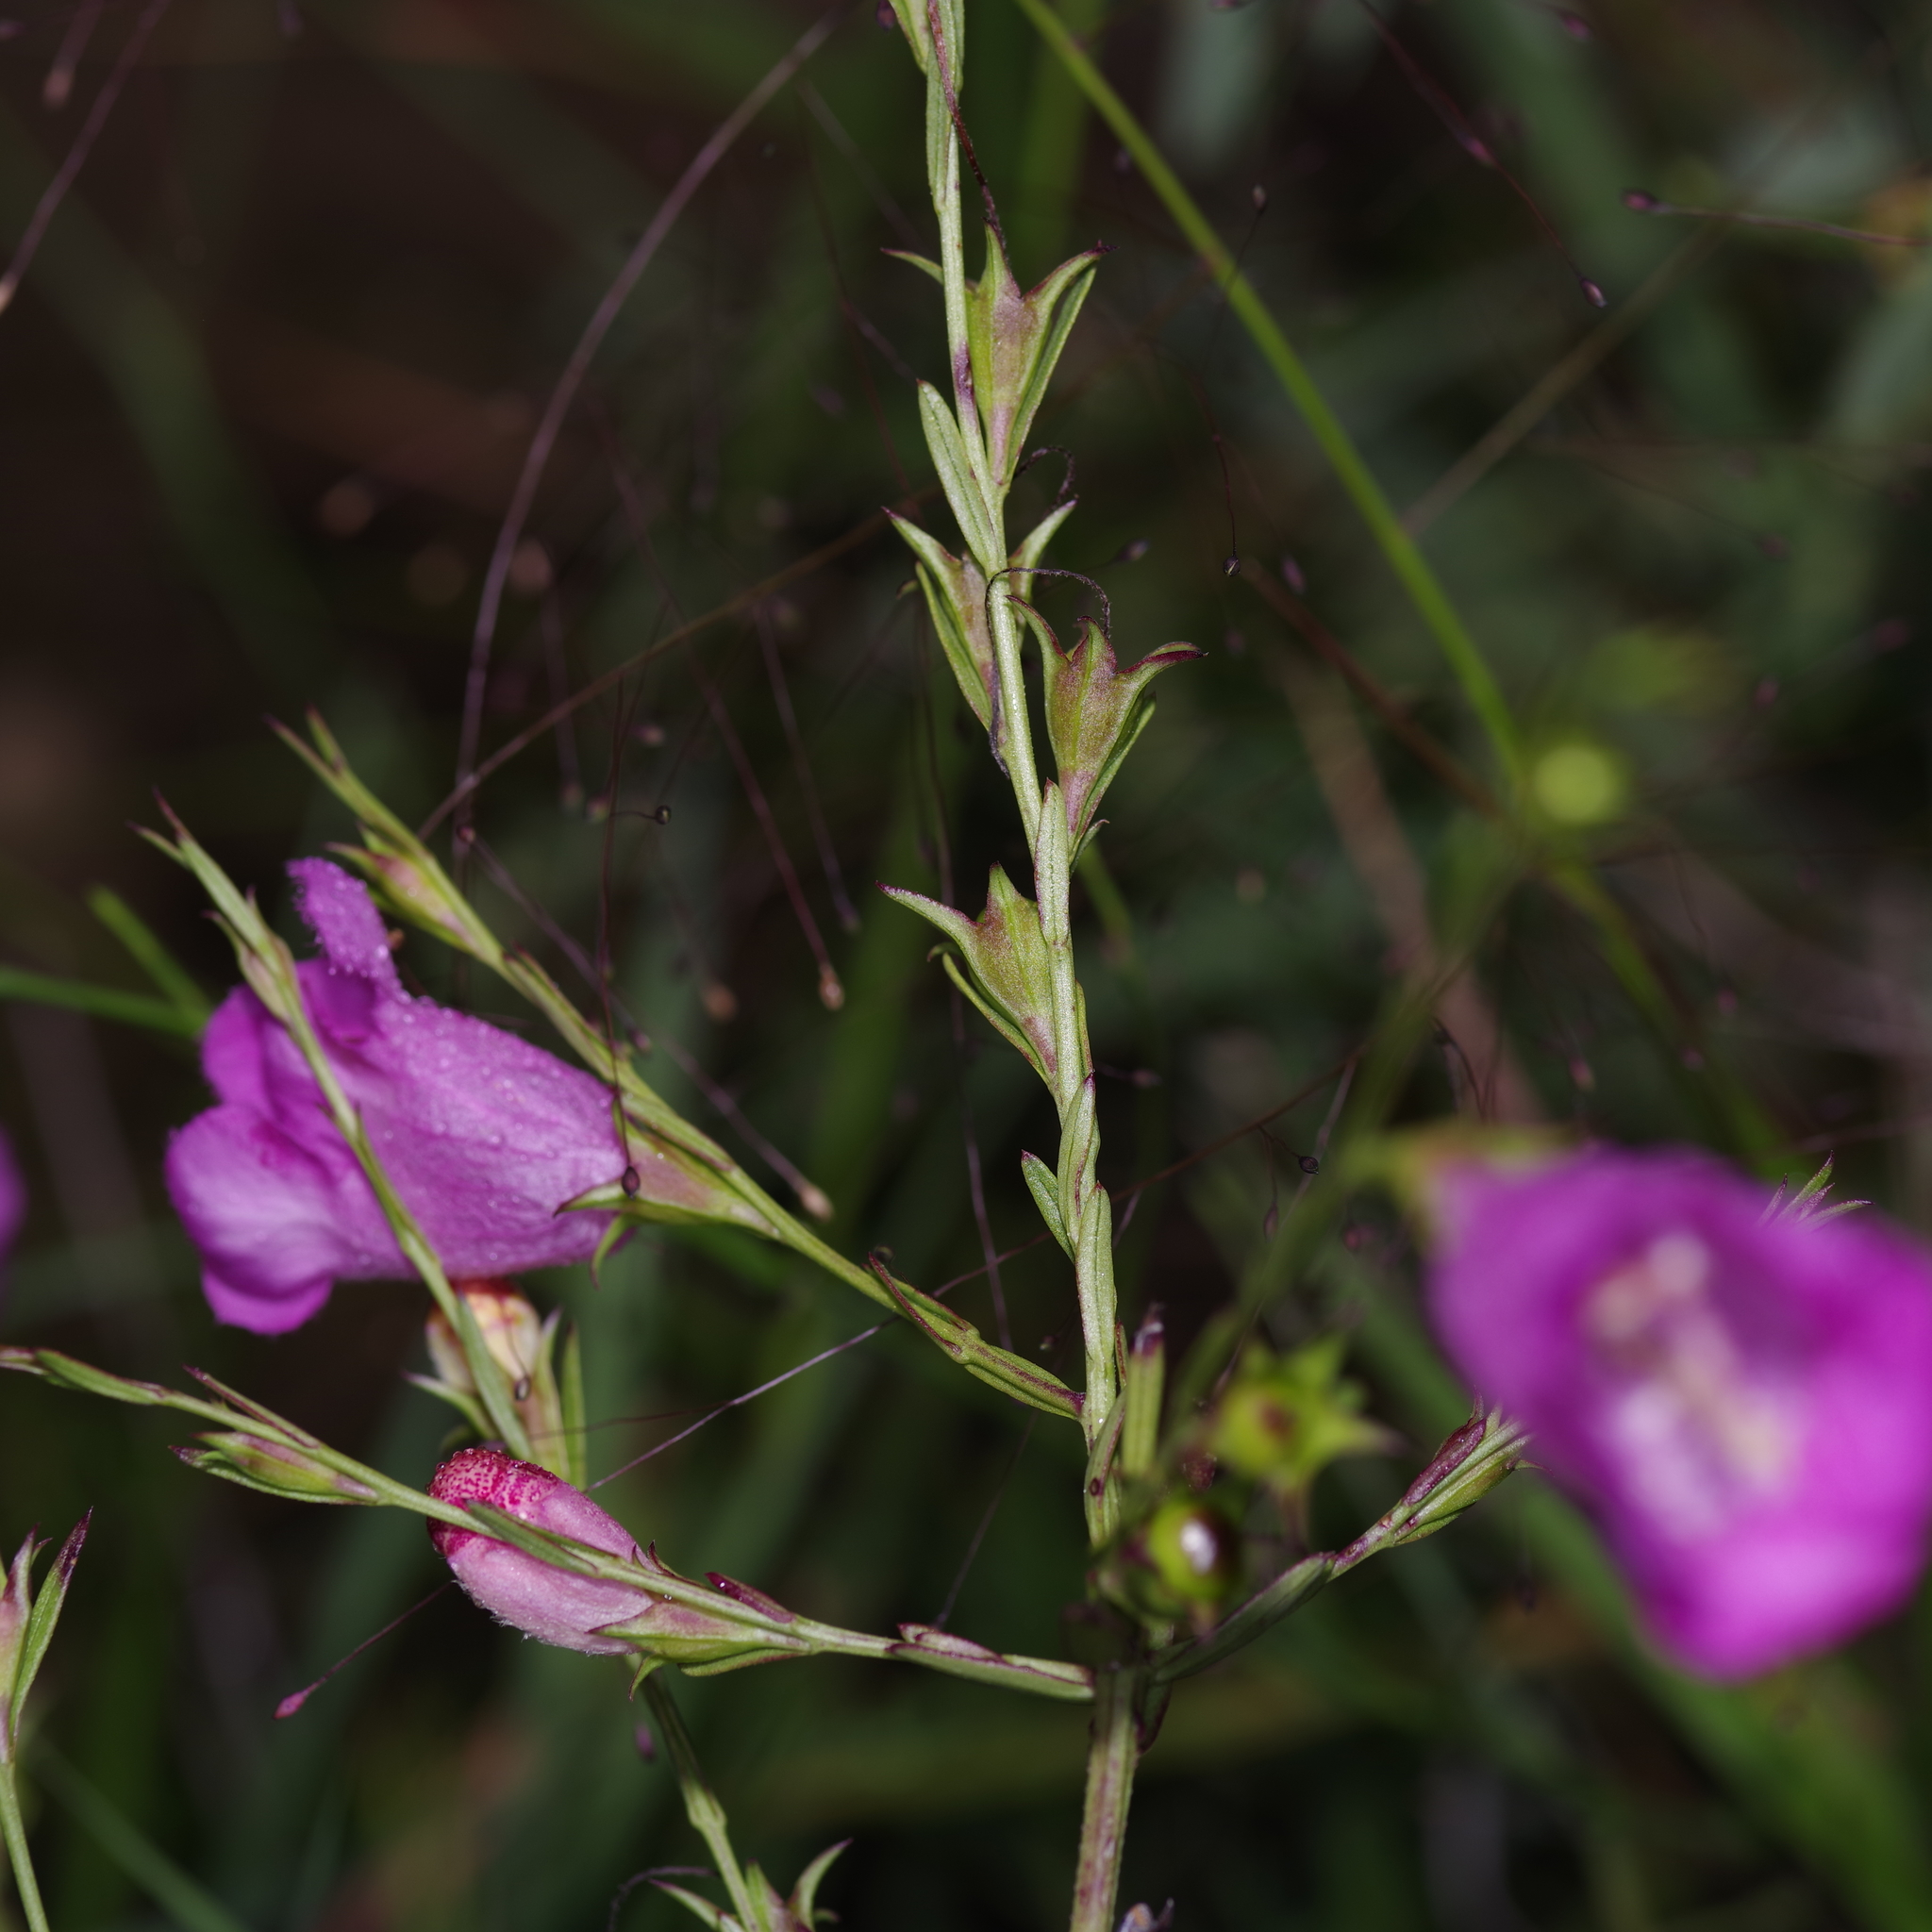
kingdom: Plantae
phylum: Tracheophyta
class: Magnoliopsida
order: Lamiales
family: Orobanchaceae
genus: Agalinis
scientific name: Agalinis heterophylla
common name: Prairie agalinis
